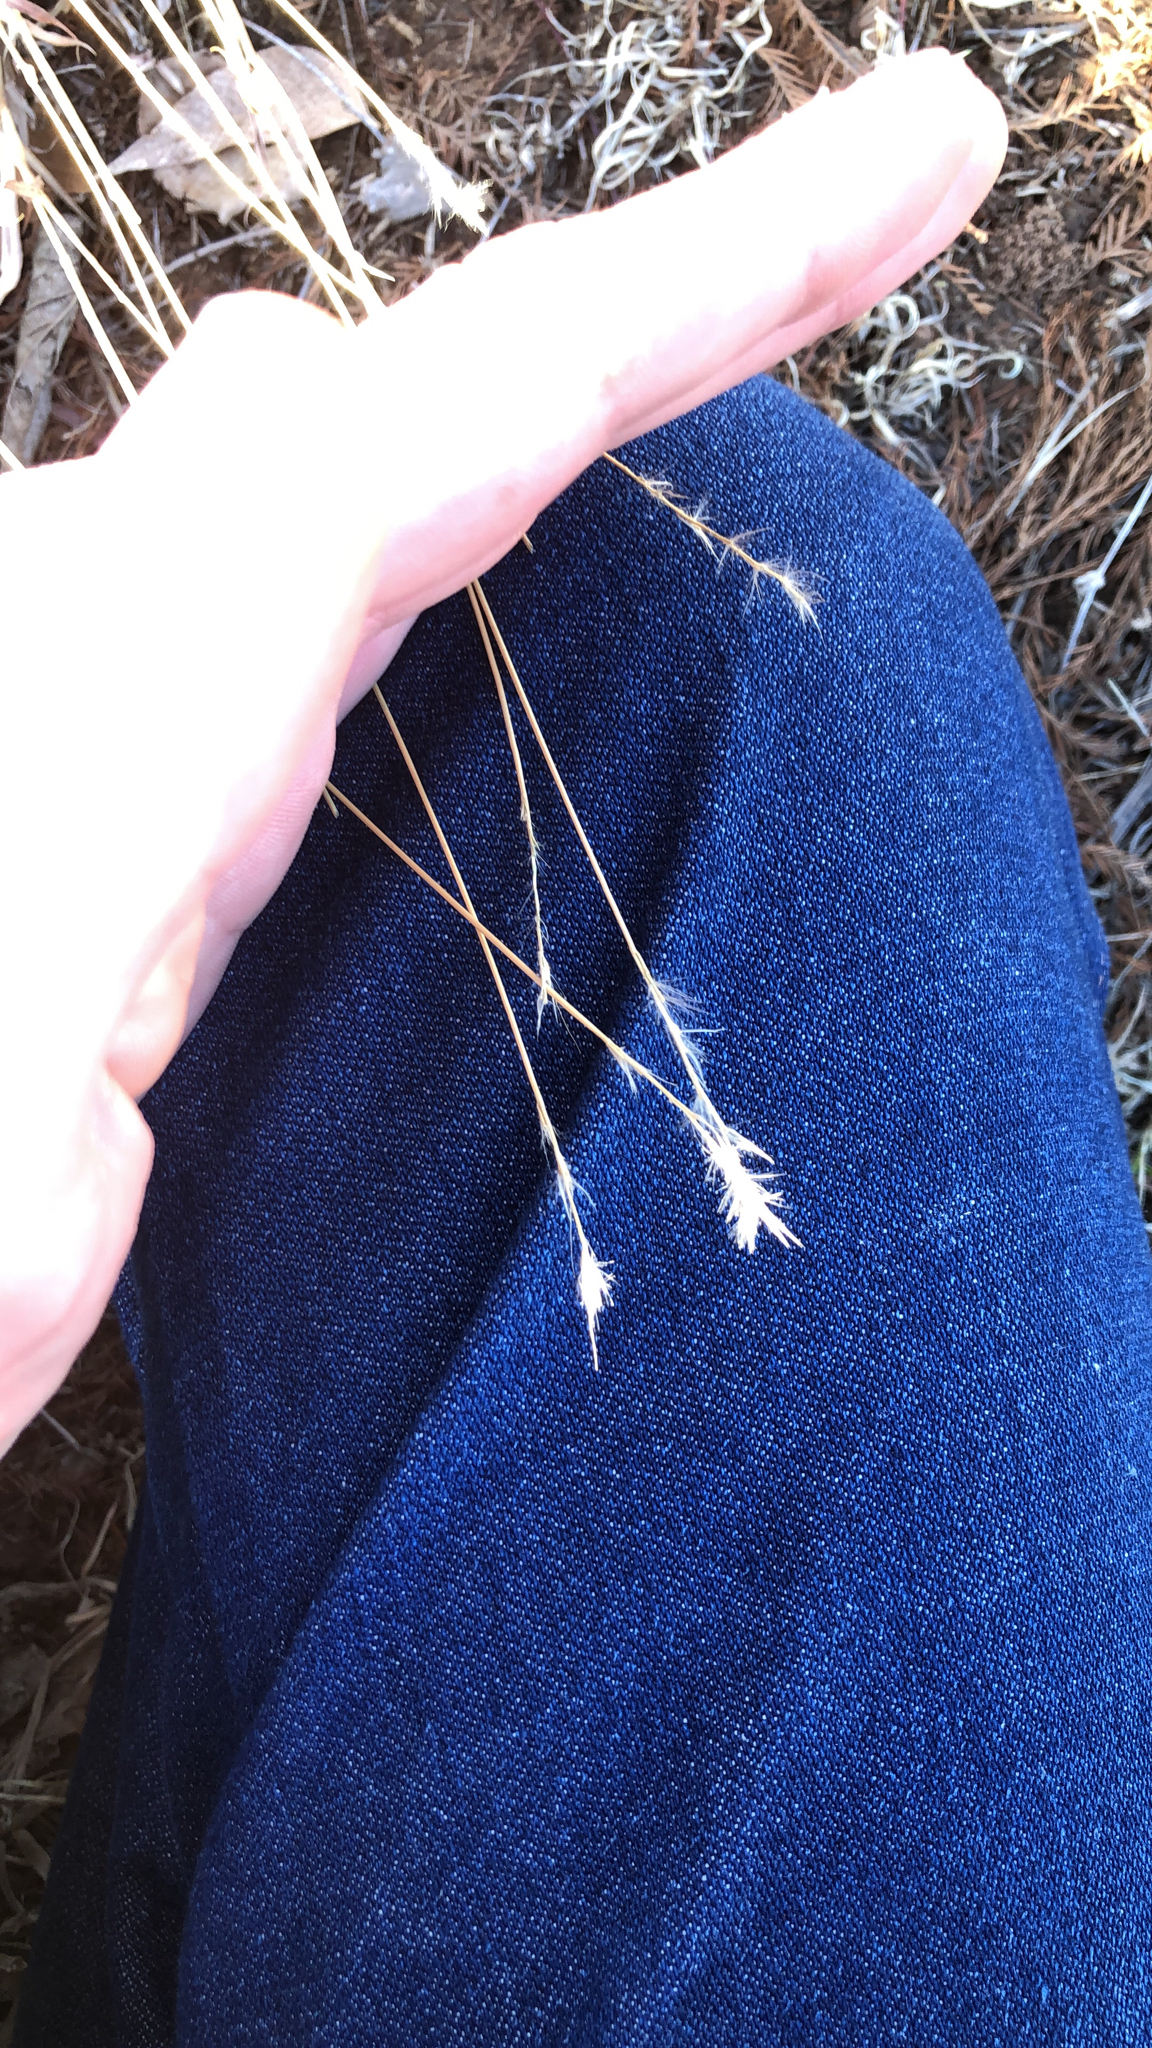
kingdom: Plantae
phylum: Tracheophyta
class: Liliopsida
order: Poales
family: Poaceae
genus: Bothriochloa
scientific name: Bothriochloa torreyana
